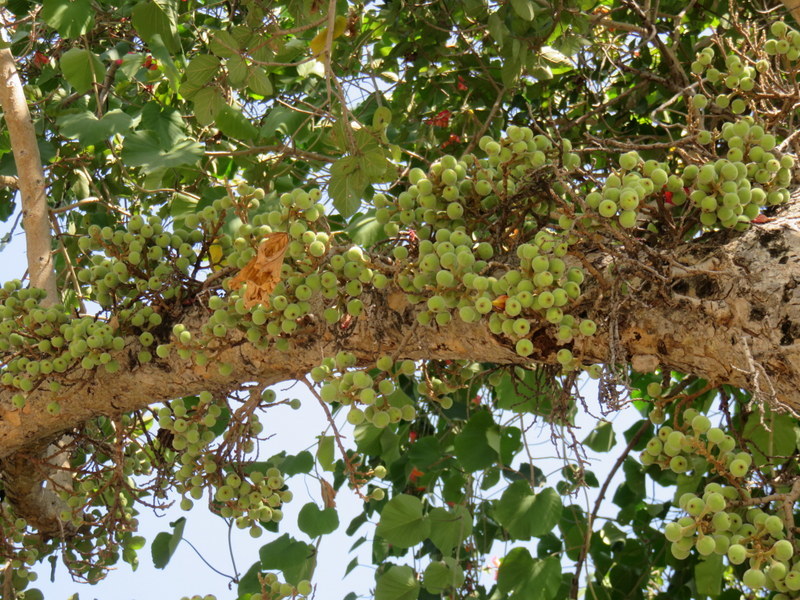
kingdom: Plantae
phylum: Tracheophyta
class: Magnoliopsida
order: Rosales
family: Moraceae
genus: Ficus
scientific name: Ficus sycomorus
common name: Sycomore
